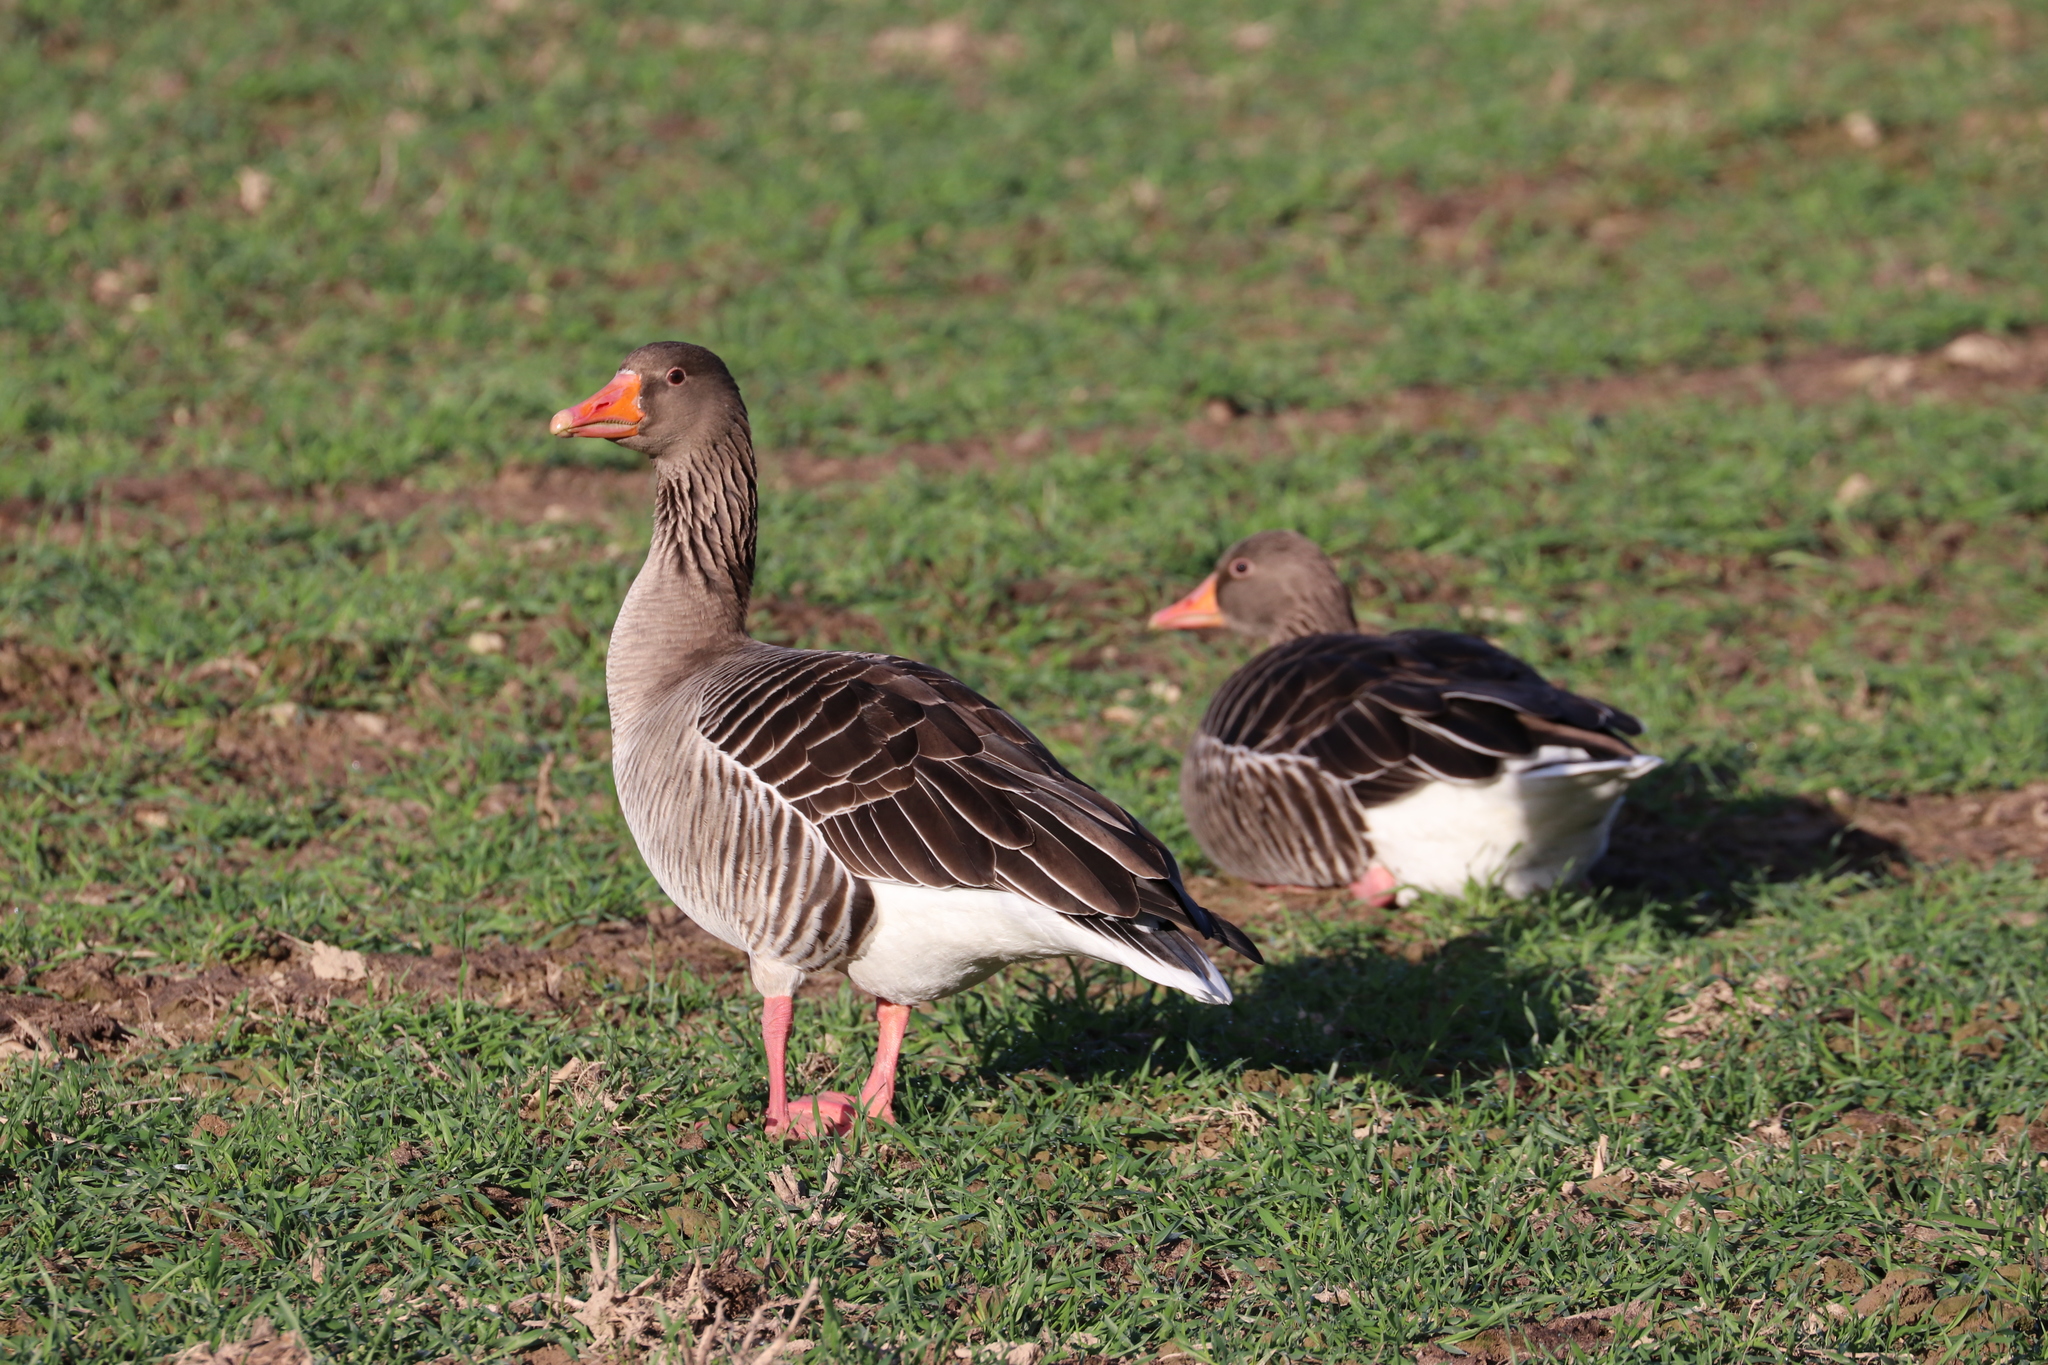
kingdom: Animalia
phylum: Chordata
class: Aves
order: Anseriformes
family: Anatidae
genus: Anser
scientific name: Anser anser
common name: Greylag goose
